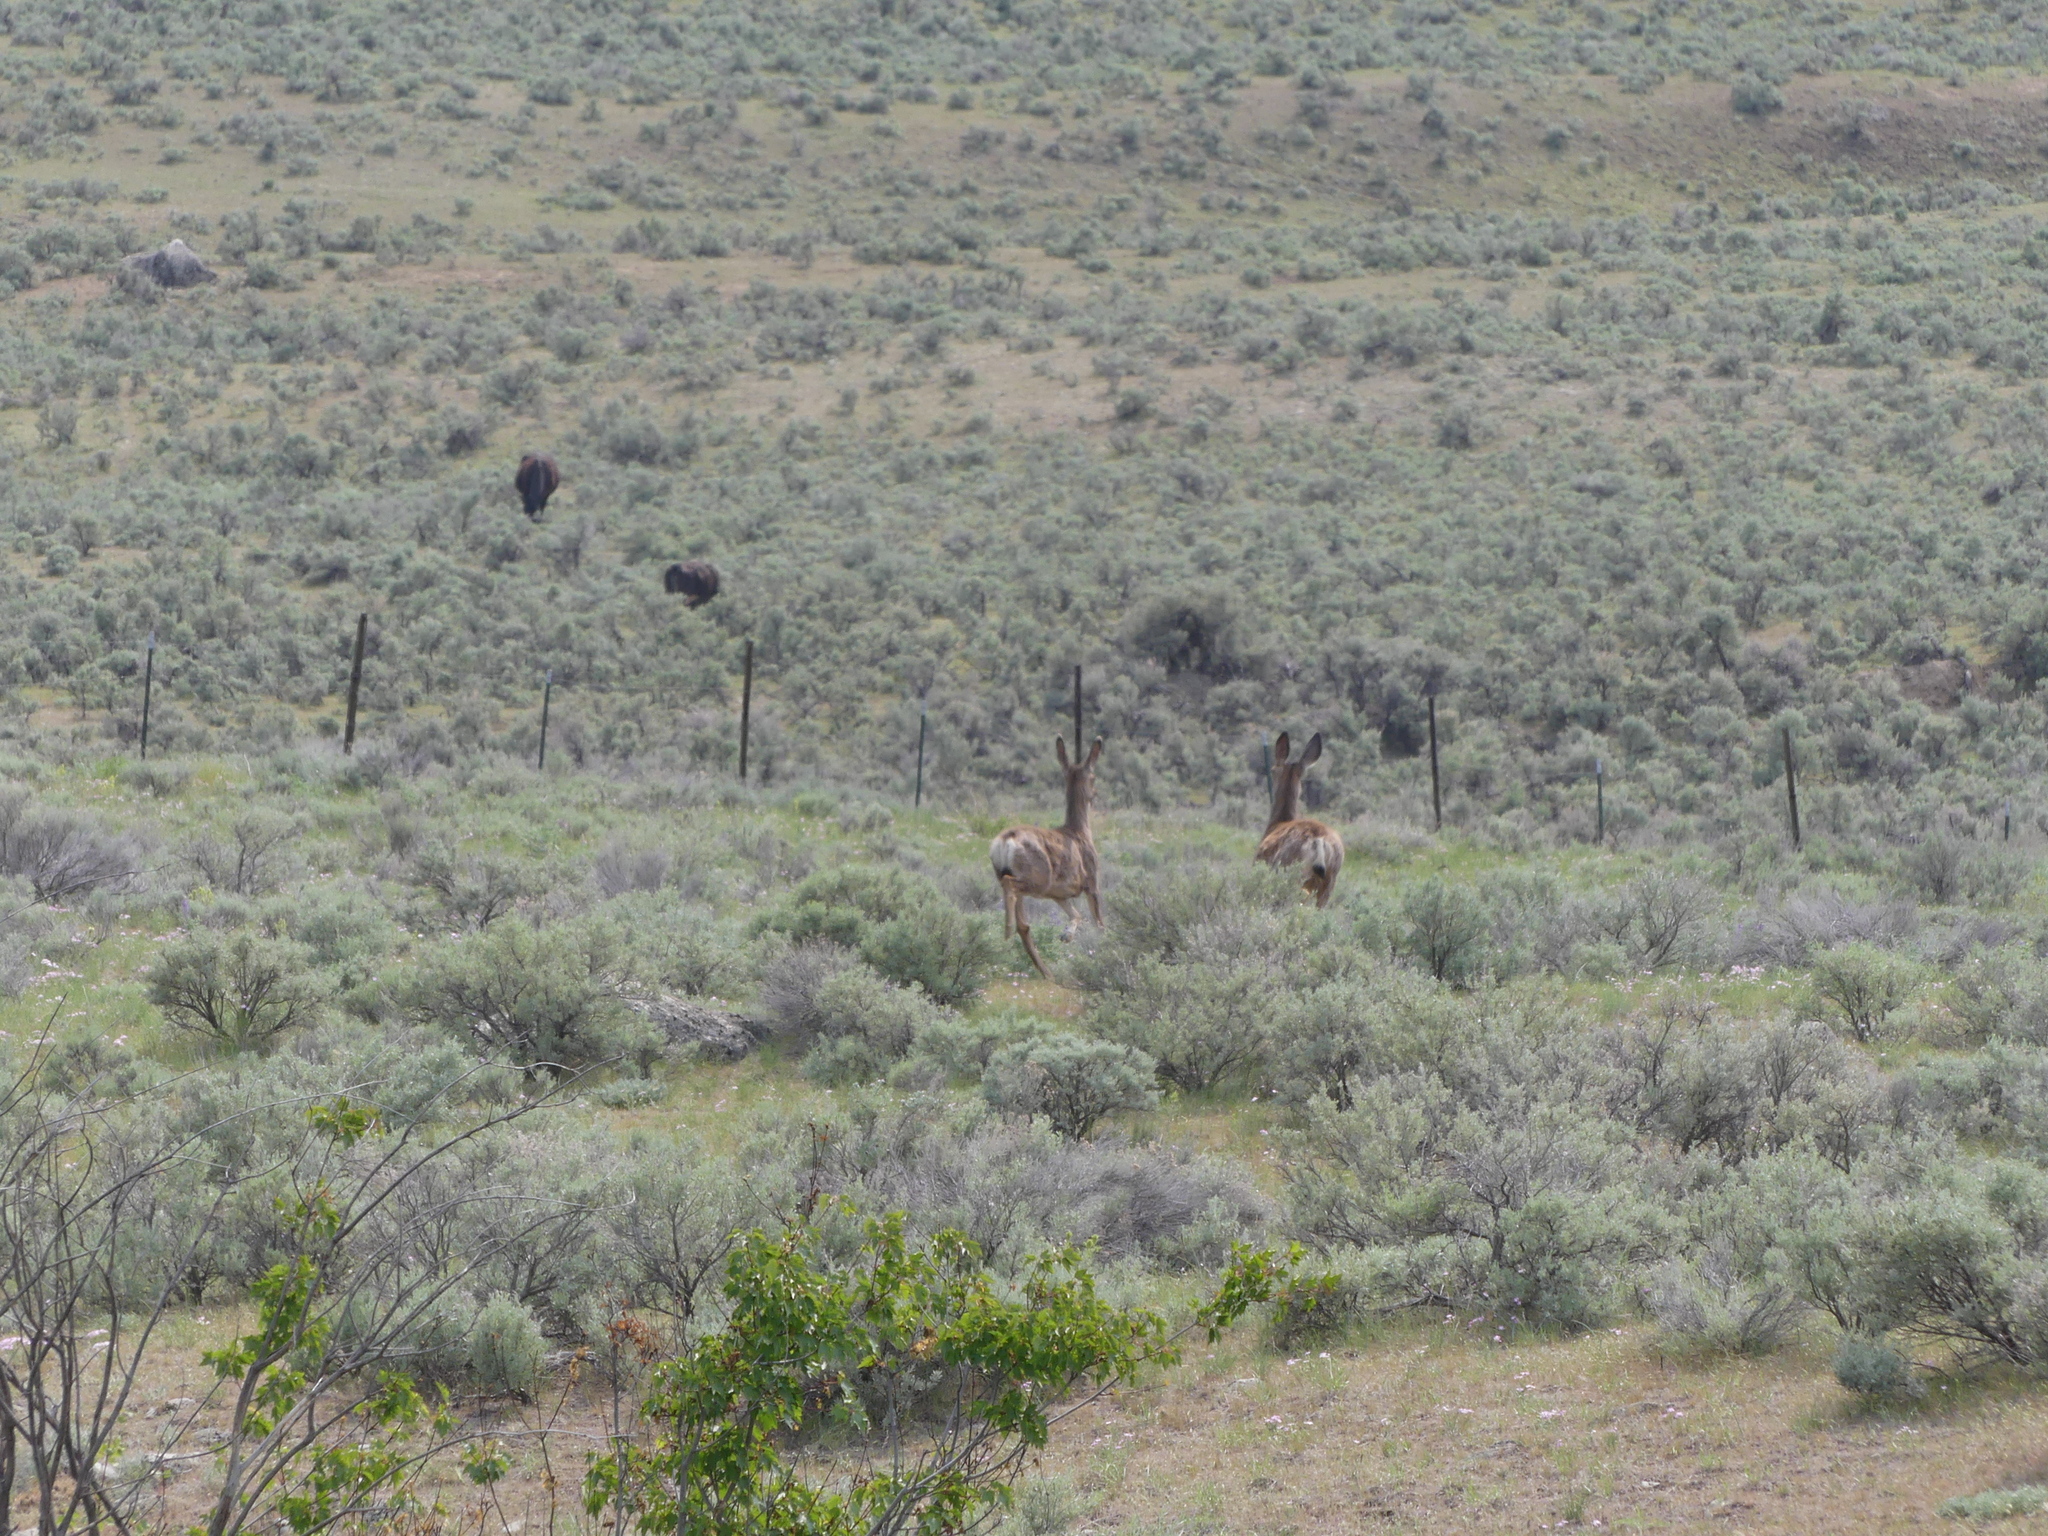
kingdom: Animalia
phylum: Chordata
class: Mammalia
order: Artiodactyla
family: Cervidae
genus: Odocoileus
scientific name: Odocoileus hemionus
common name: Mule deer
